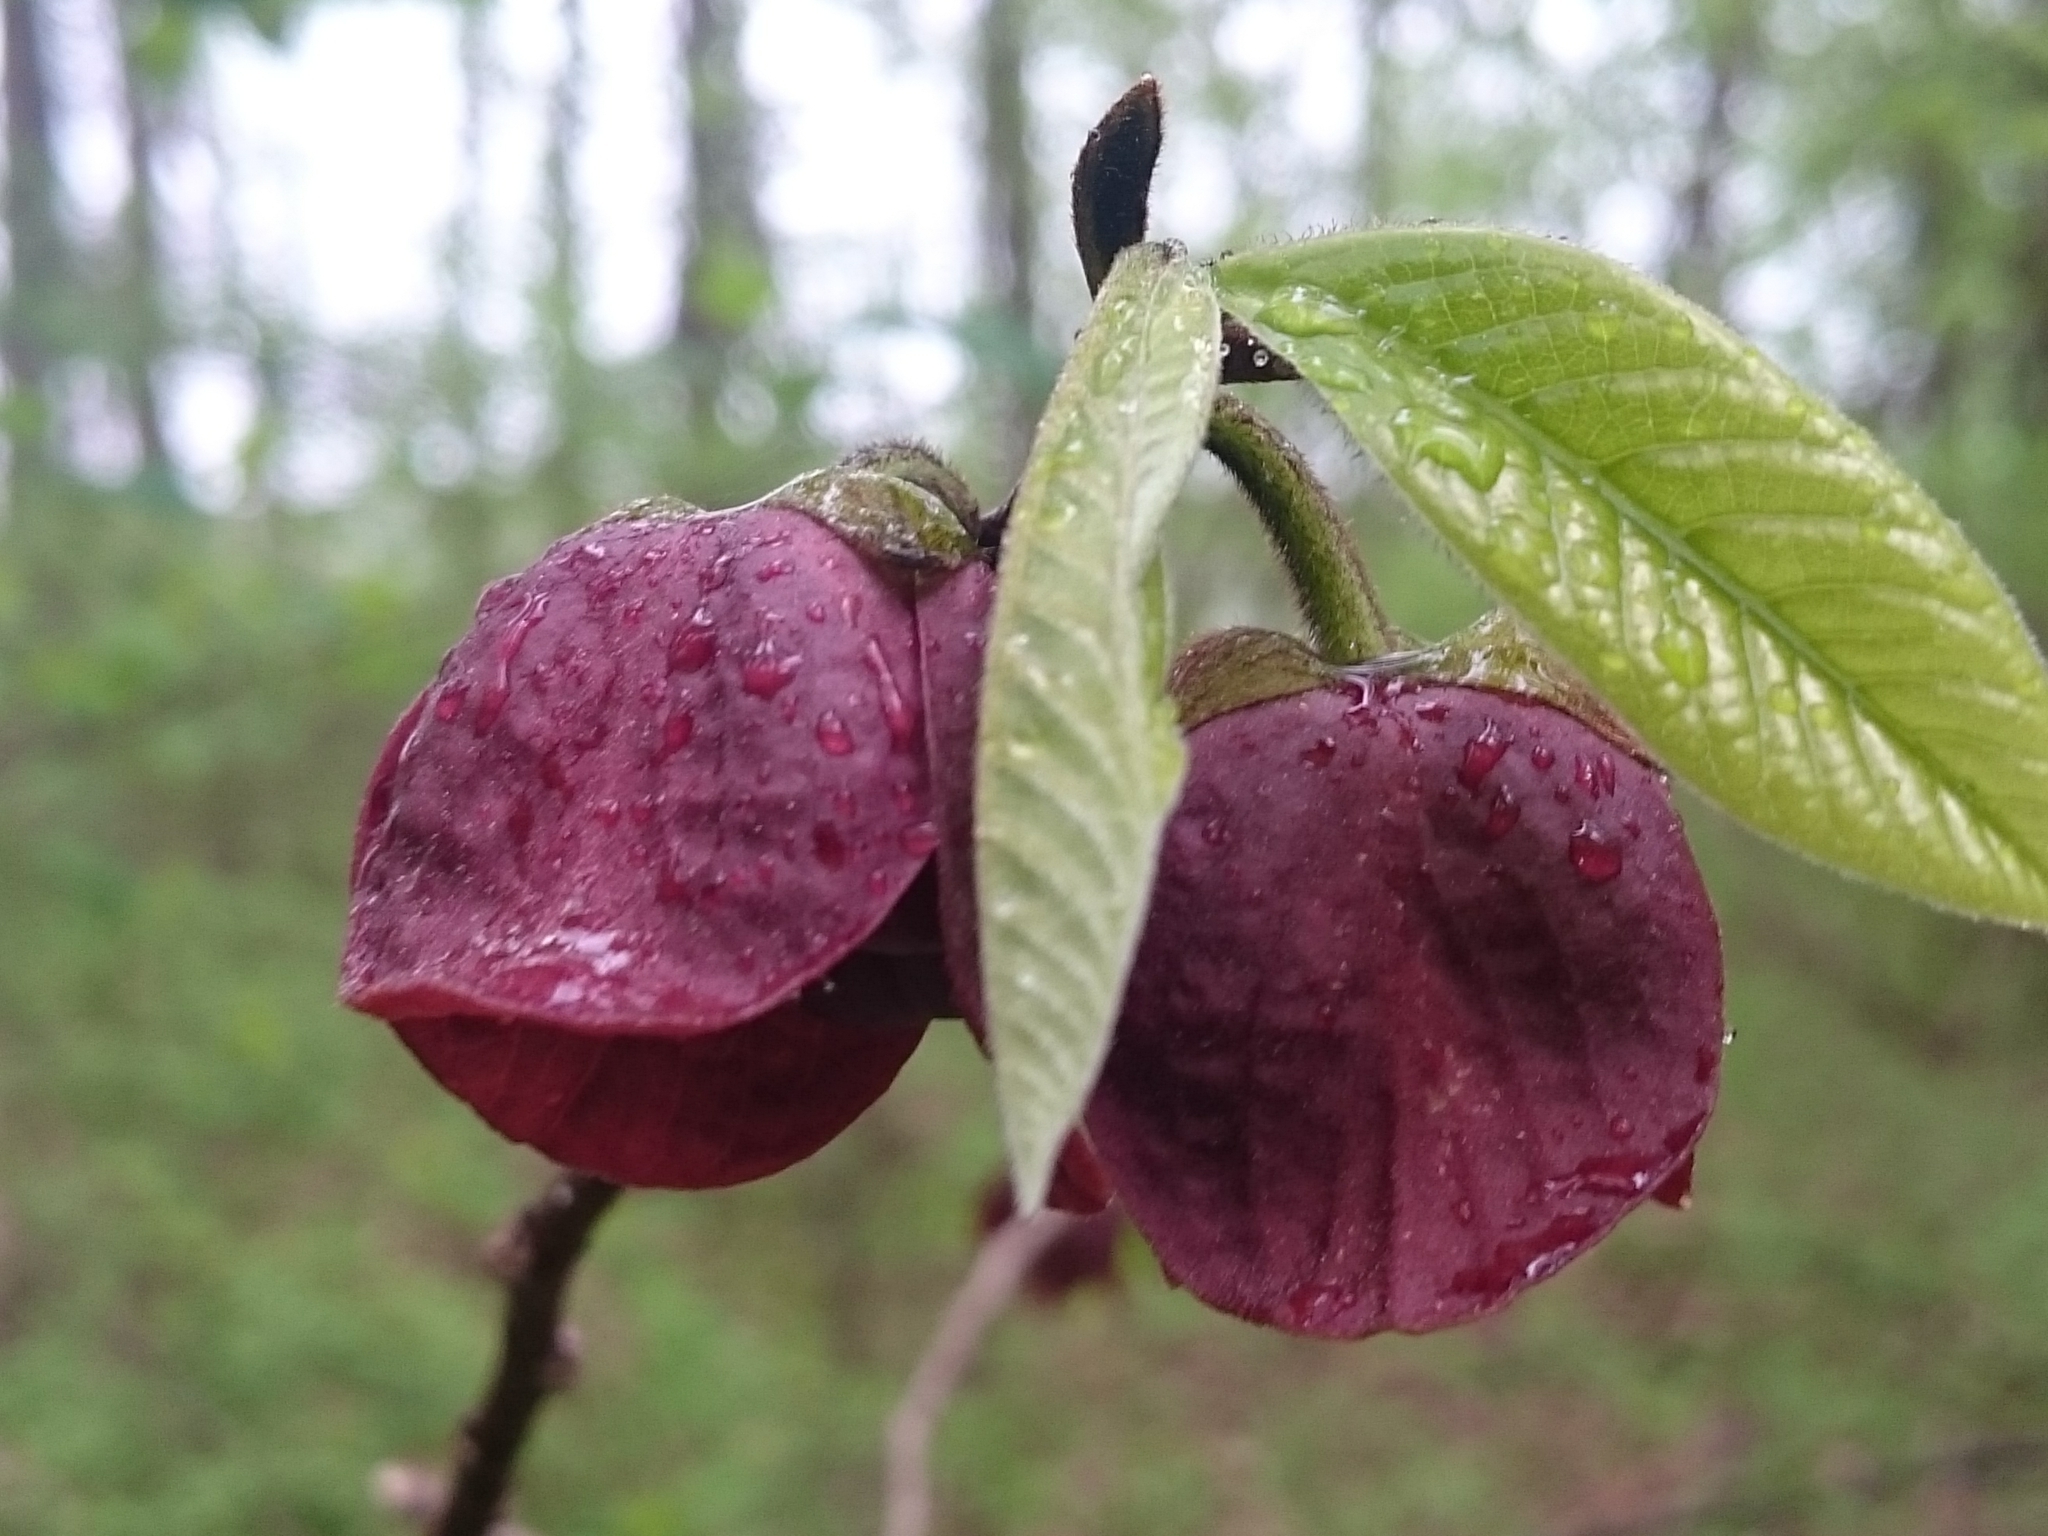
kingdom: Plantae
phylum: Tracheophyta
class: Magnoliopsida
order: Magnoliales
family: Annonaceae
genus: Asimina
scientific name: Asimina triloba
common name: Dog-banana
